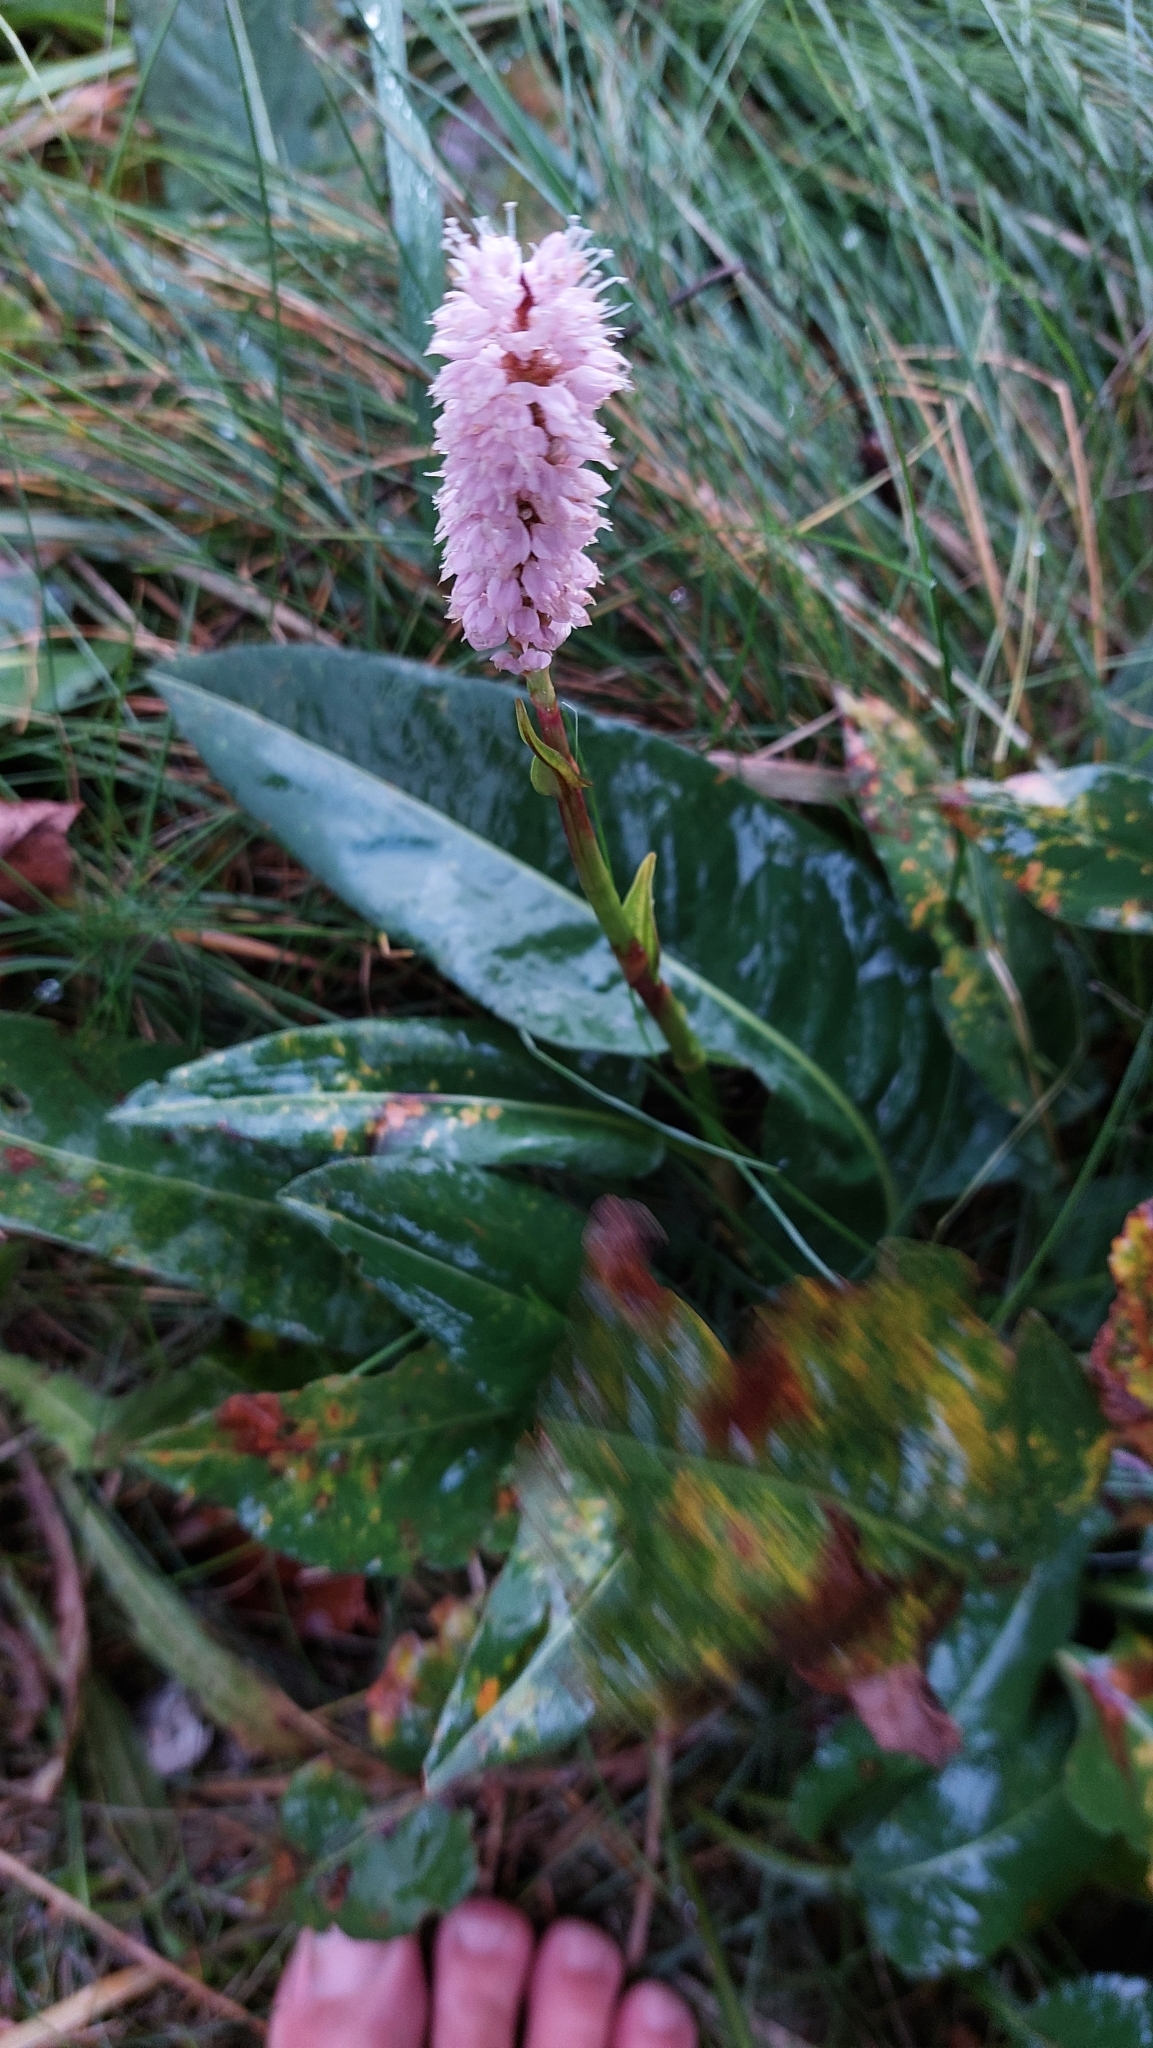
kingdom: Plantae
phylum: Tracheophyta
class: Magnoliopsida
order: Caryophyllales
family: Polygonaceae
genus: Bistorta
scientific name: Bistorta officinalis
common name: Common bistort
